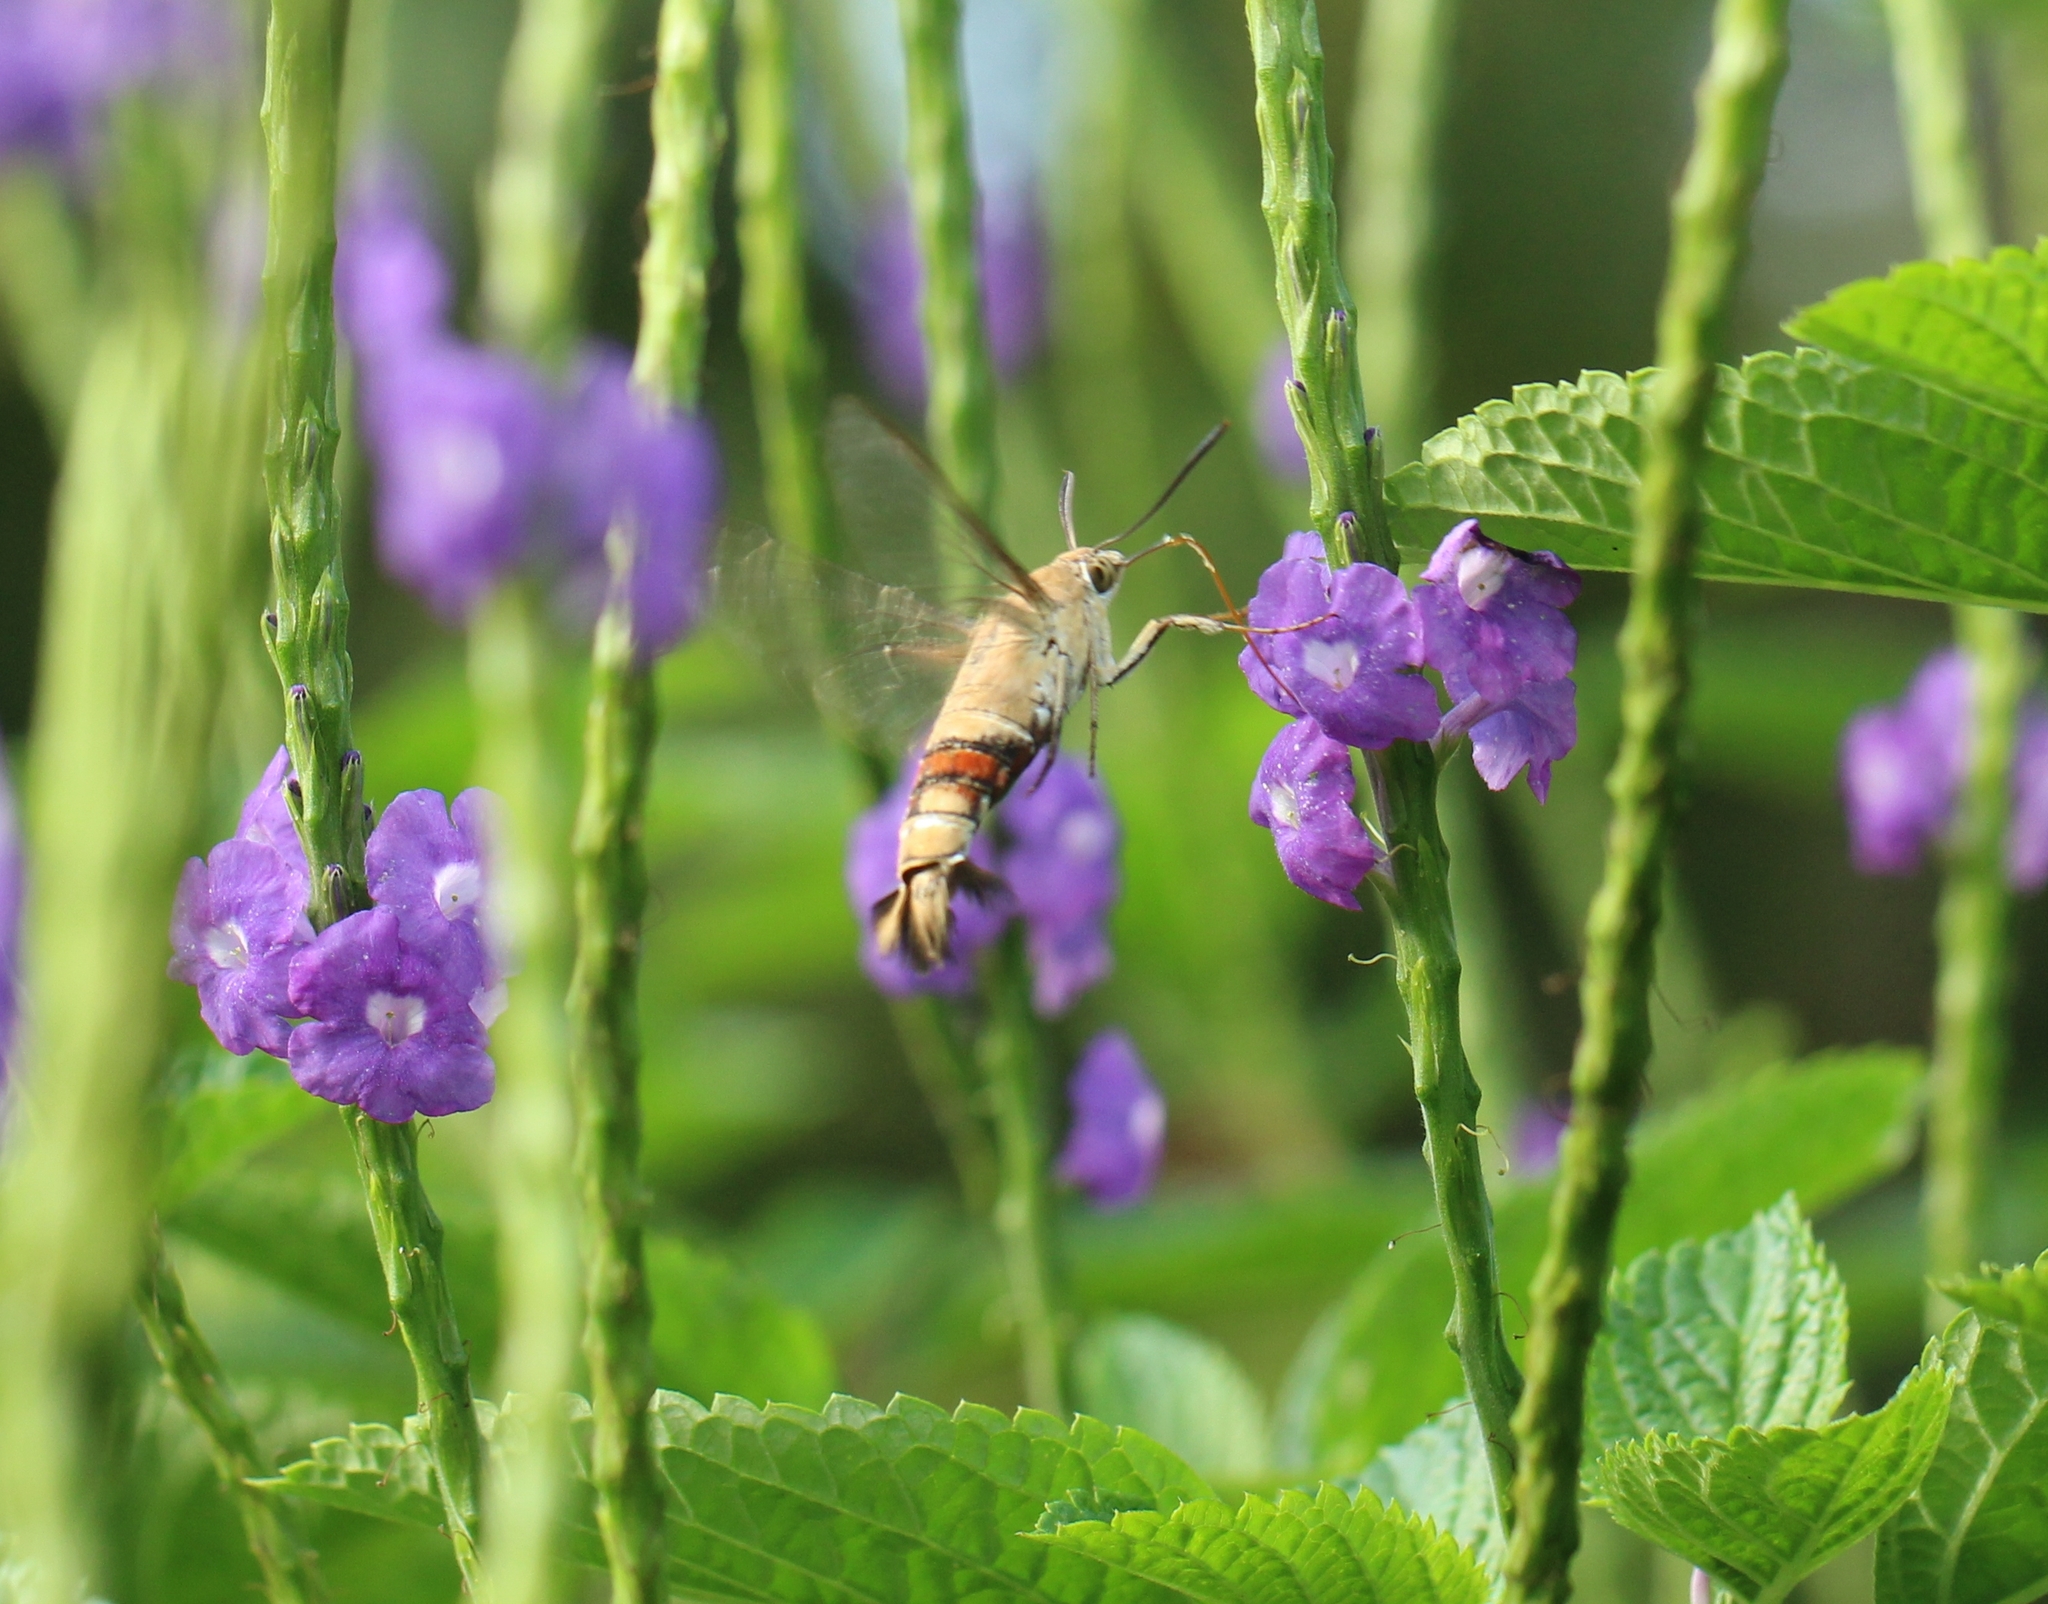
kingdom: Animalia
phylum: Arthropoda
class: Insecta
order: Lepidoptera
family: Sphingidae
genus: Cephonodes
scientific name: Cephonodes hylas
